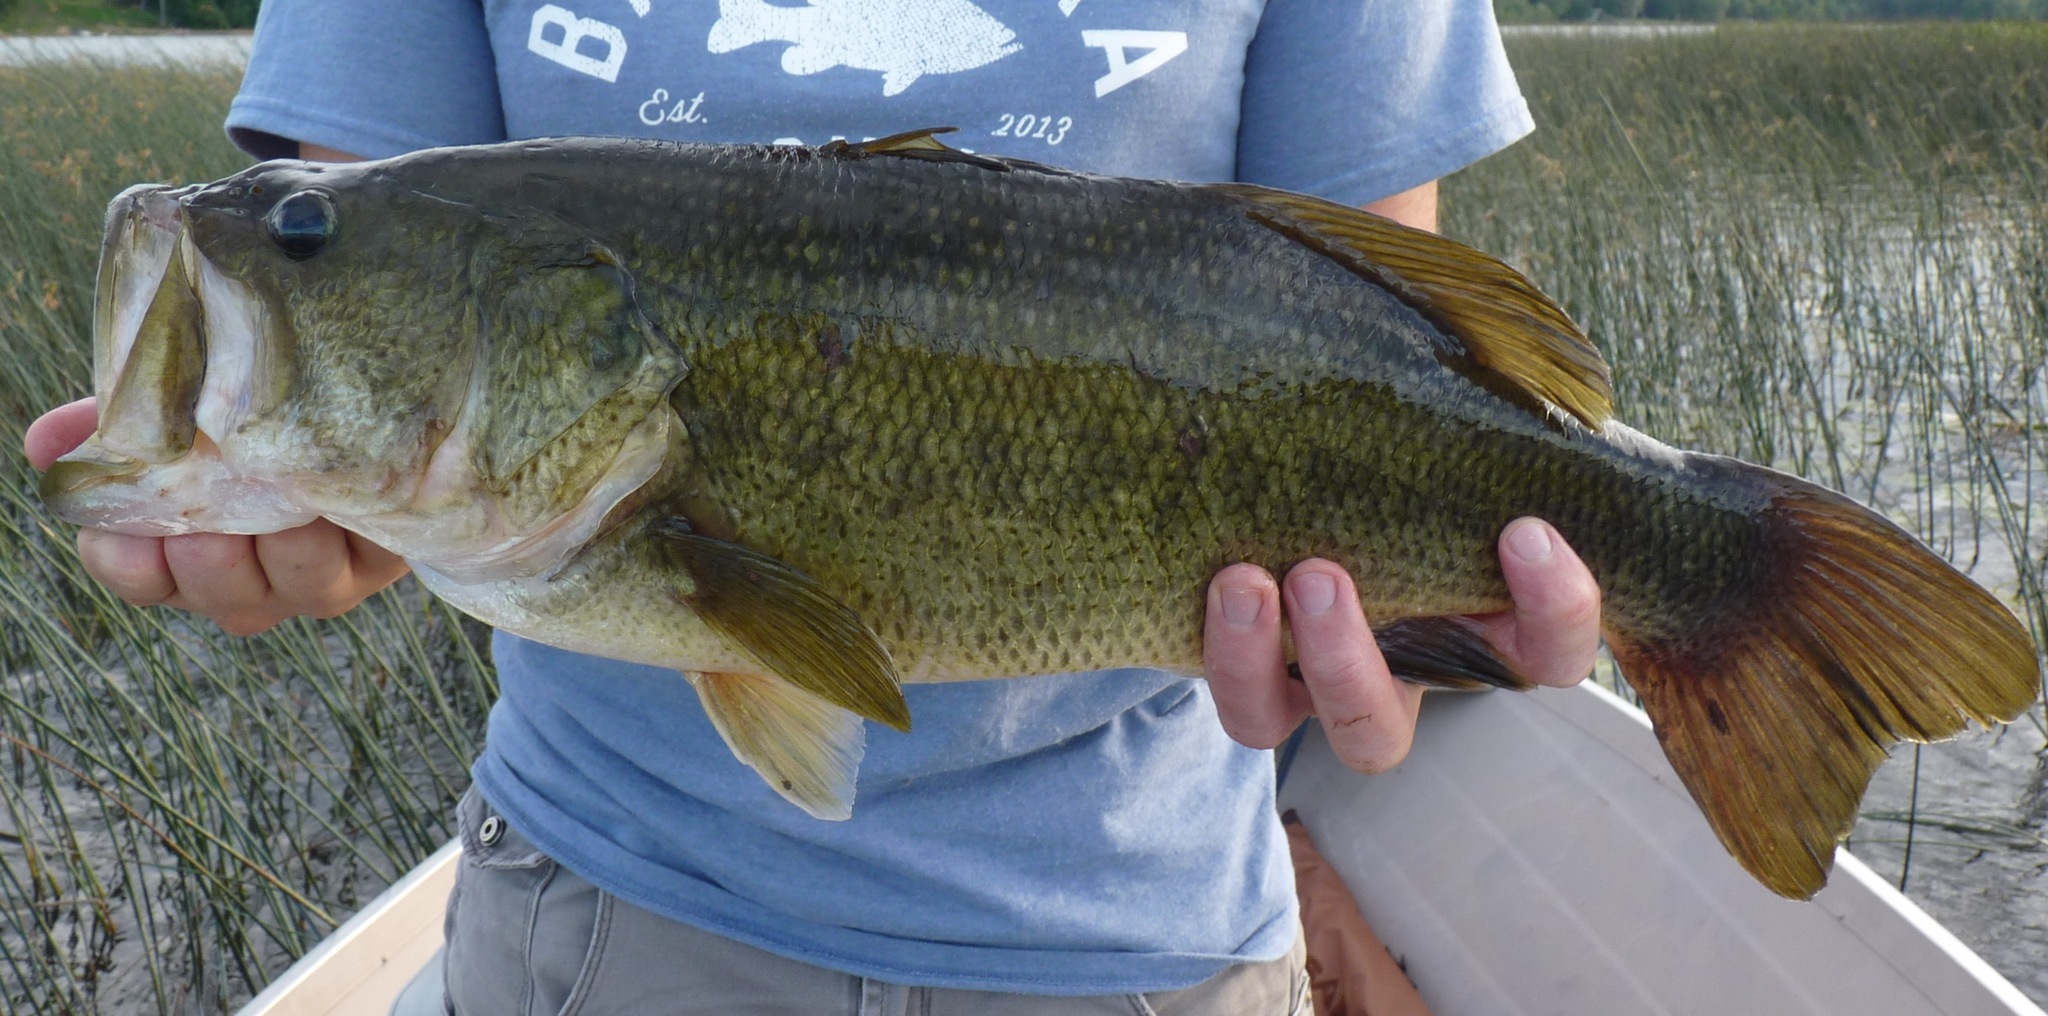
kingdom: Animalia
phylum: Chordata
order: Perciformes
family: Centrarchidae
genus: Micropterus
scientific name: Micropterus
